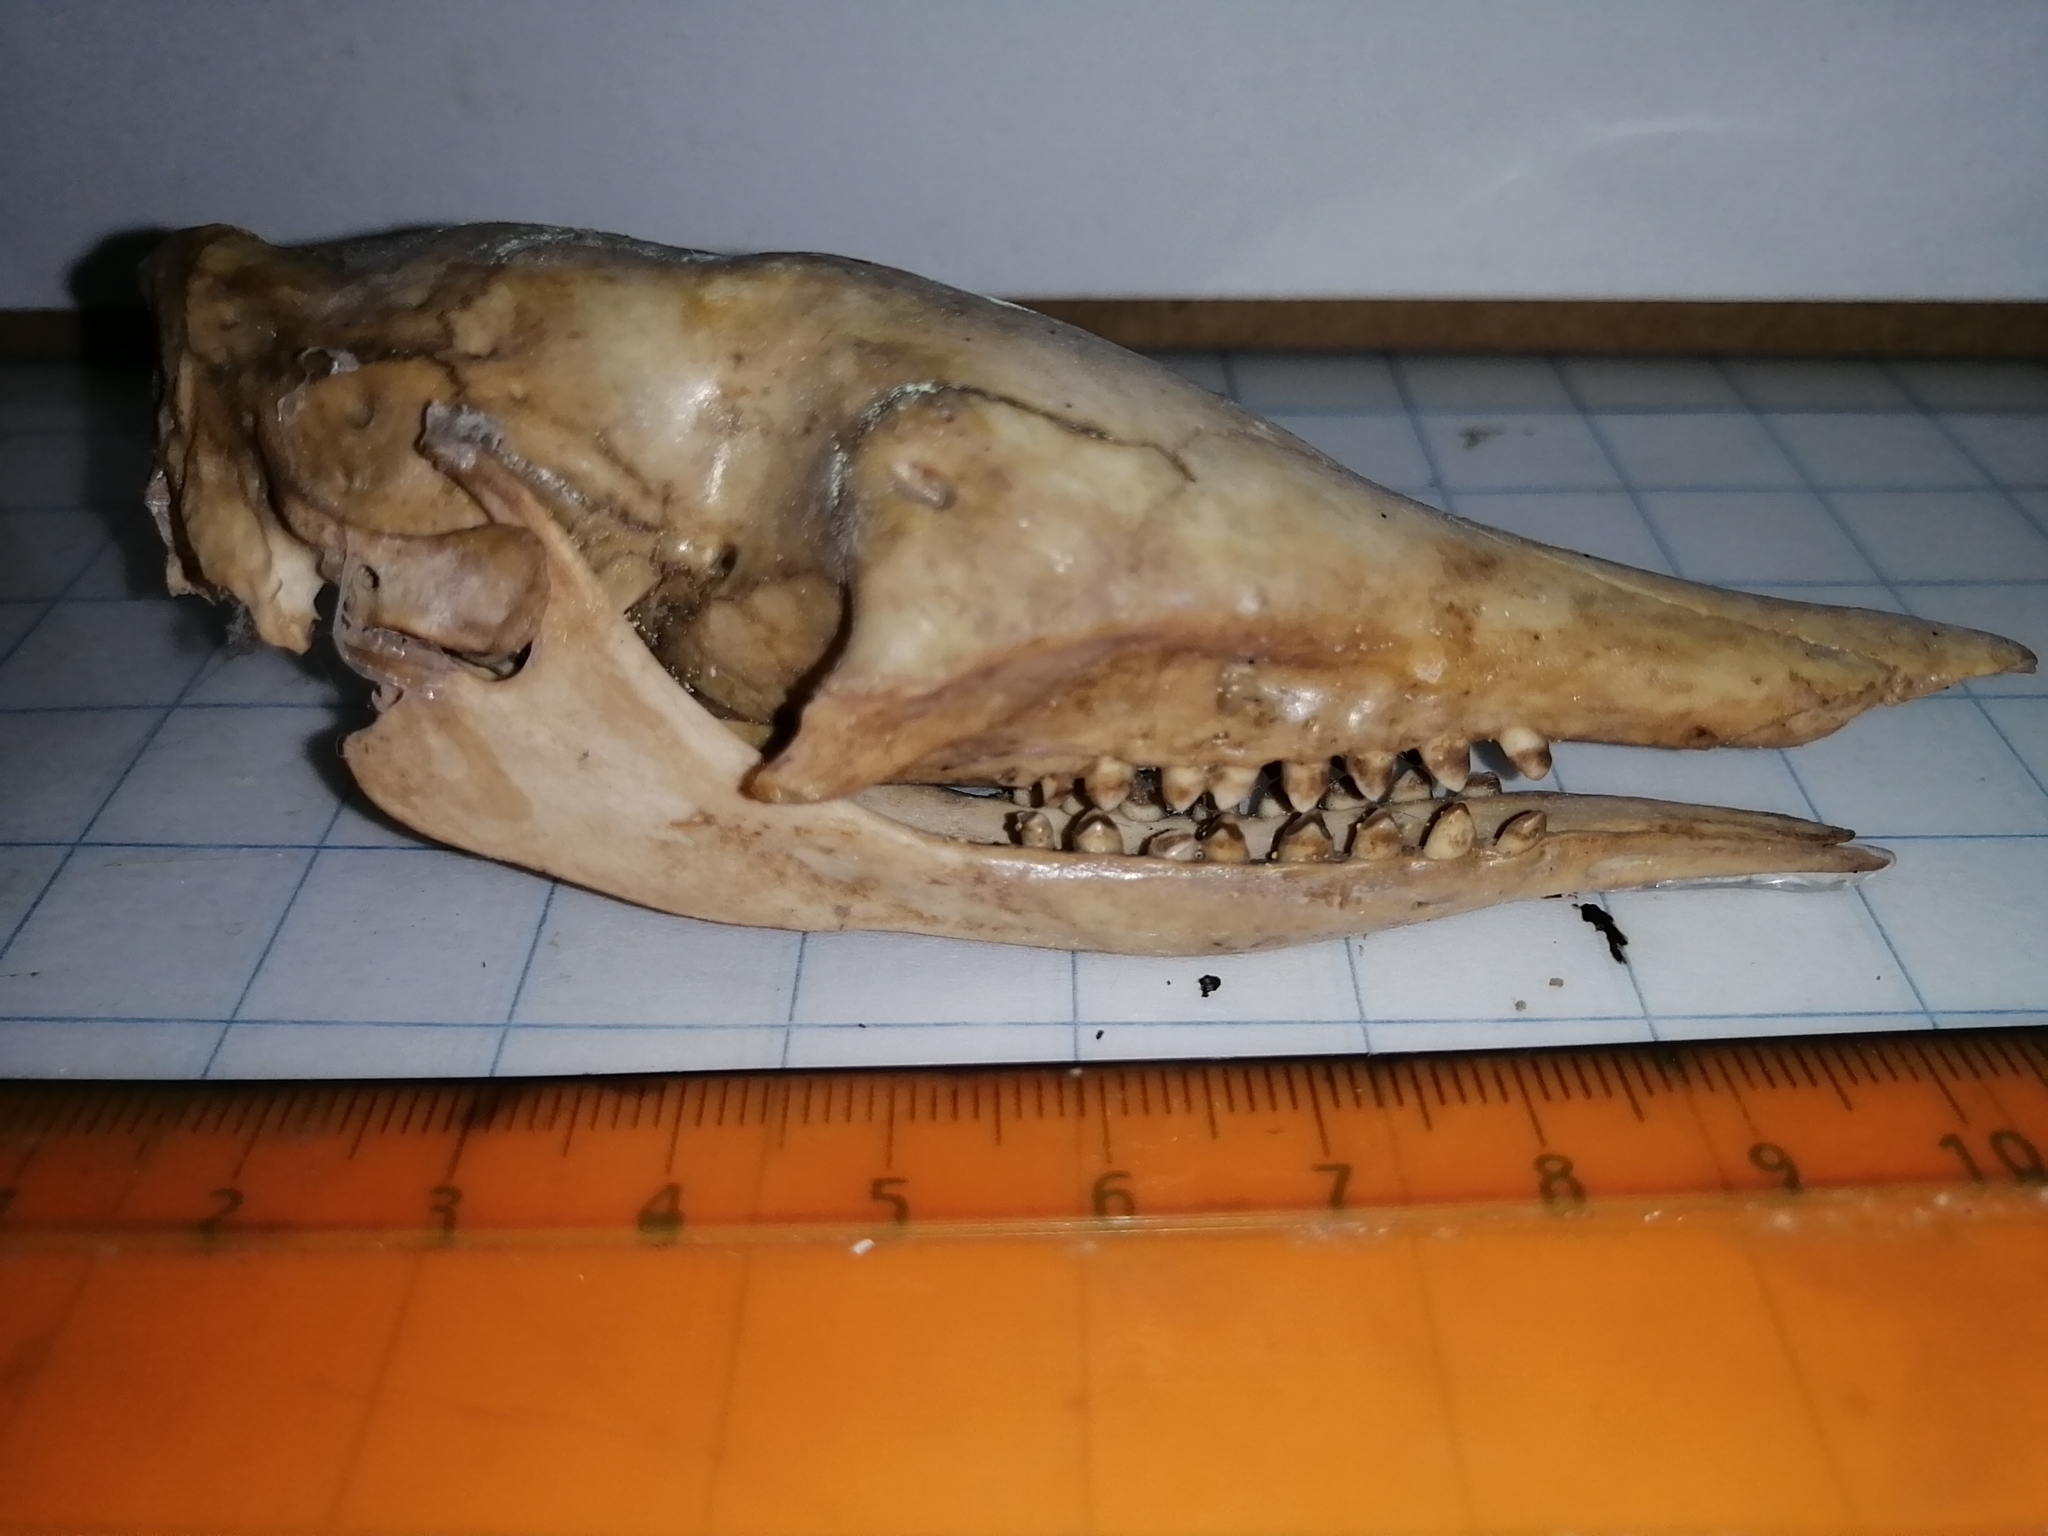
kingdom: Animalia
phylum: Chordata
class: Mammalia
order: Cingulata
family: Dasypodidae
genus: Dasypus
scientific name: Dasypus novemcinctus
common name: Nine-banded armadillo
